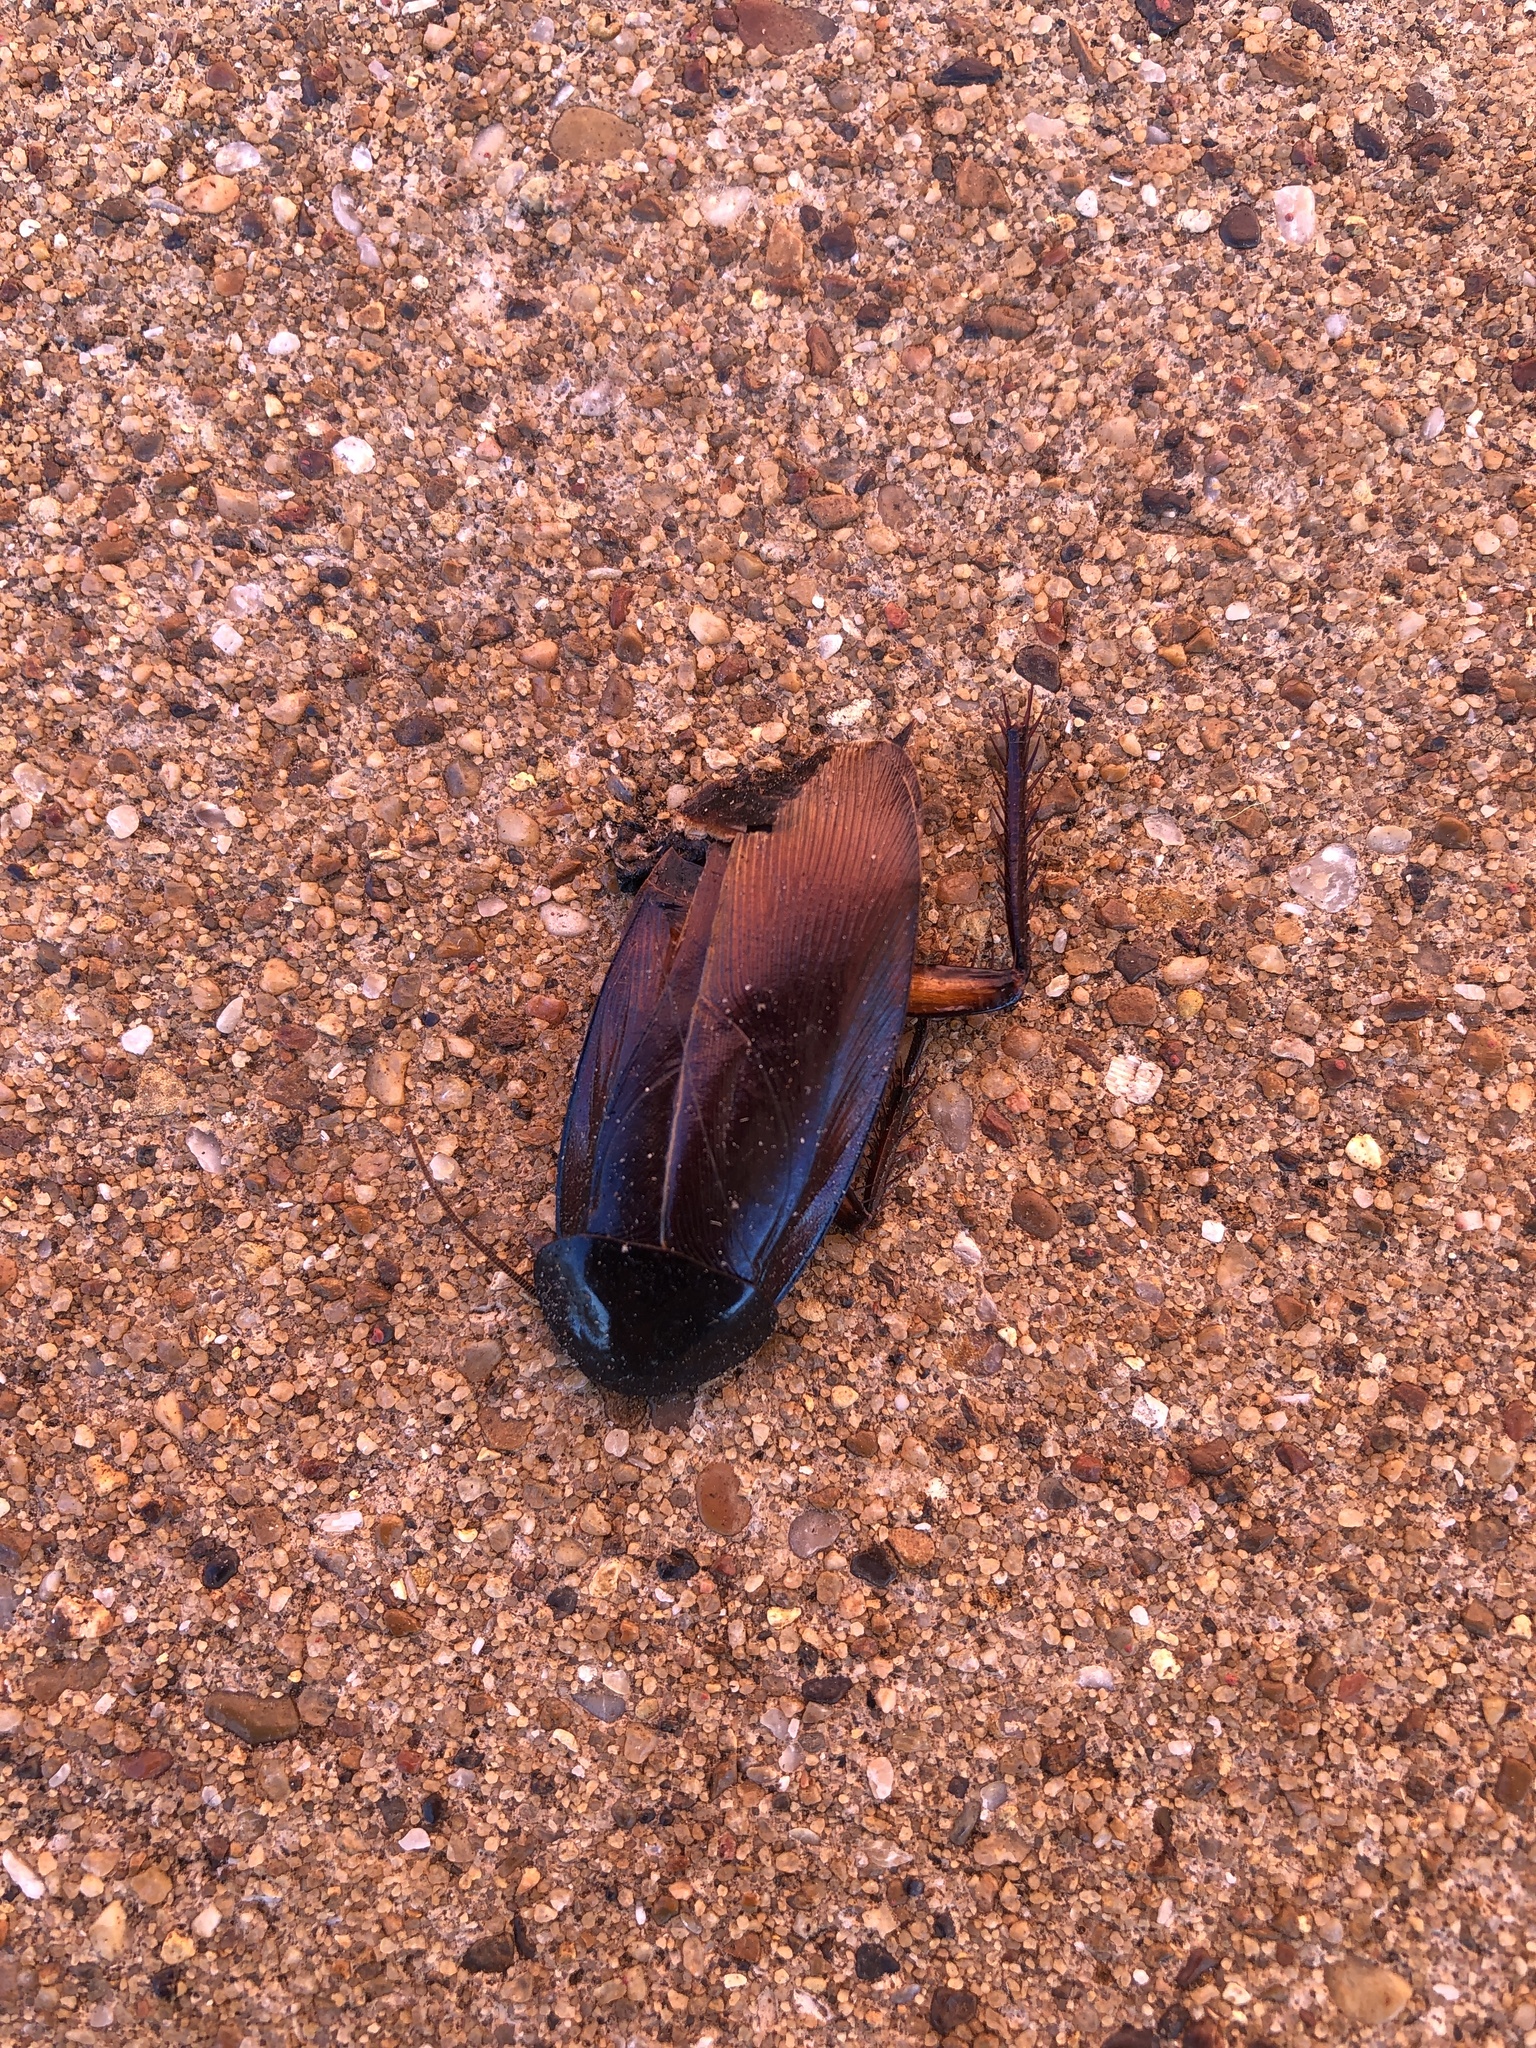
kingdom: Animalia
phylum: Arthropoda
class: Insecta
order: Blattodea
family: Blattidae
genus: Periplaneta
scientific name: Periplaneta fuliginosa
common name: Smokeybrown cockroad
